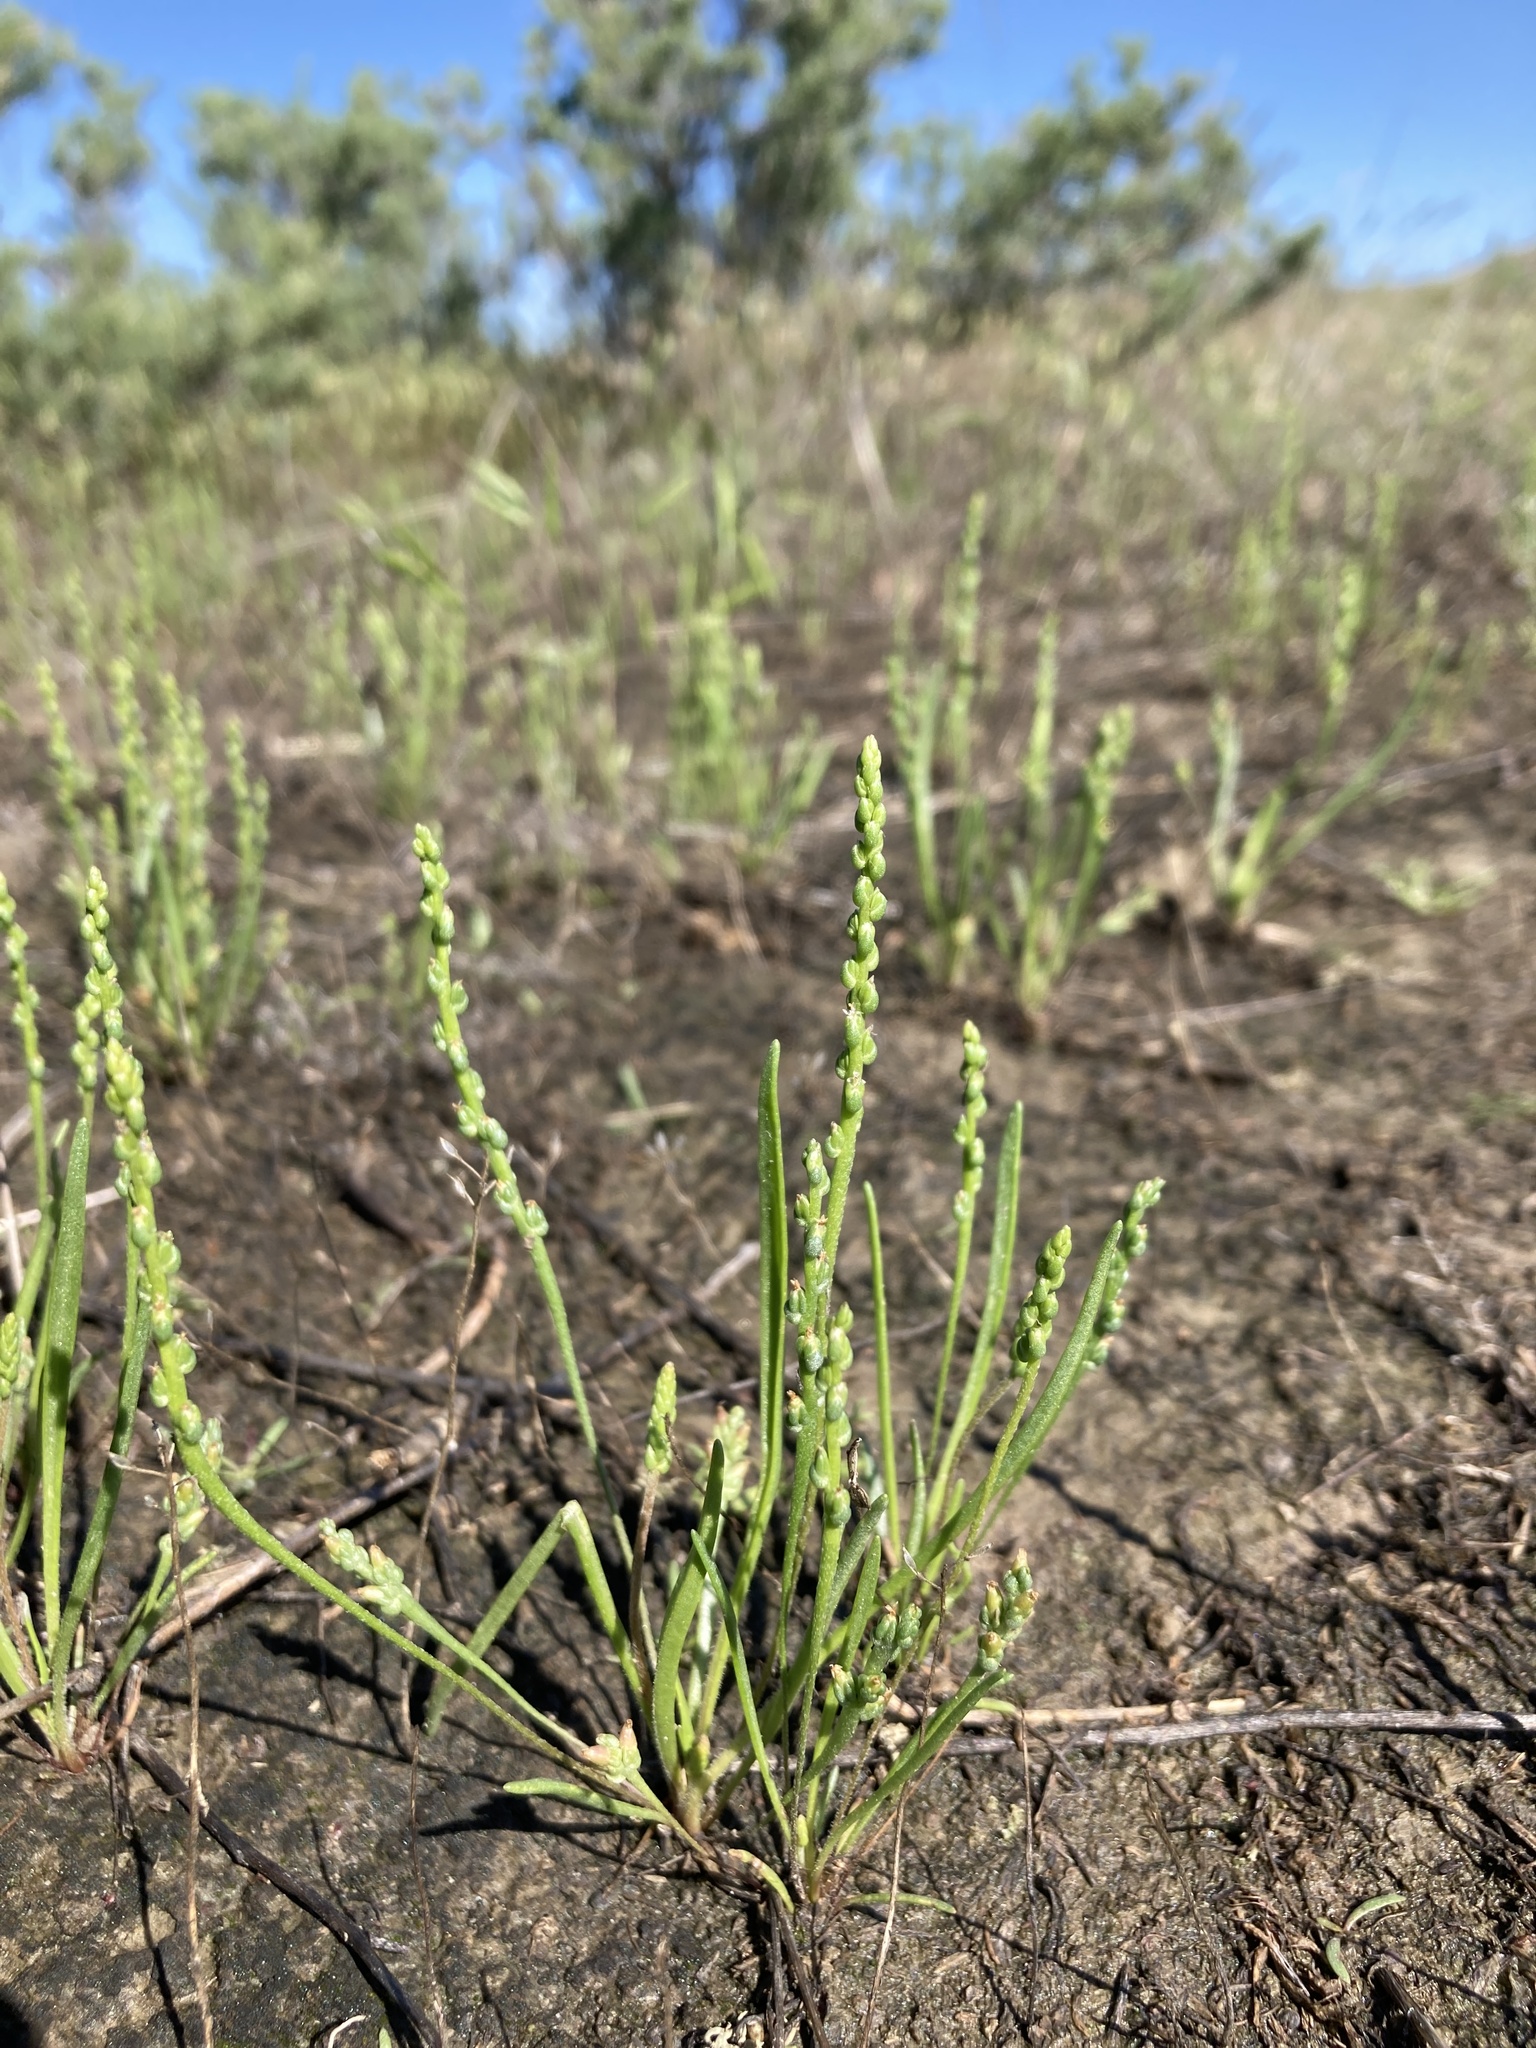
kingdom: Plantae
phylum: Tracheophyta
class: Magnoliopsida
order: Lamiales
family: Plantaginaceae
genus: Plantago
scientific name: Plantago elongata
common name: Linear-leaved plantain
